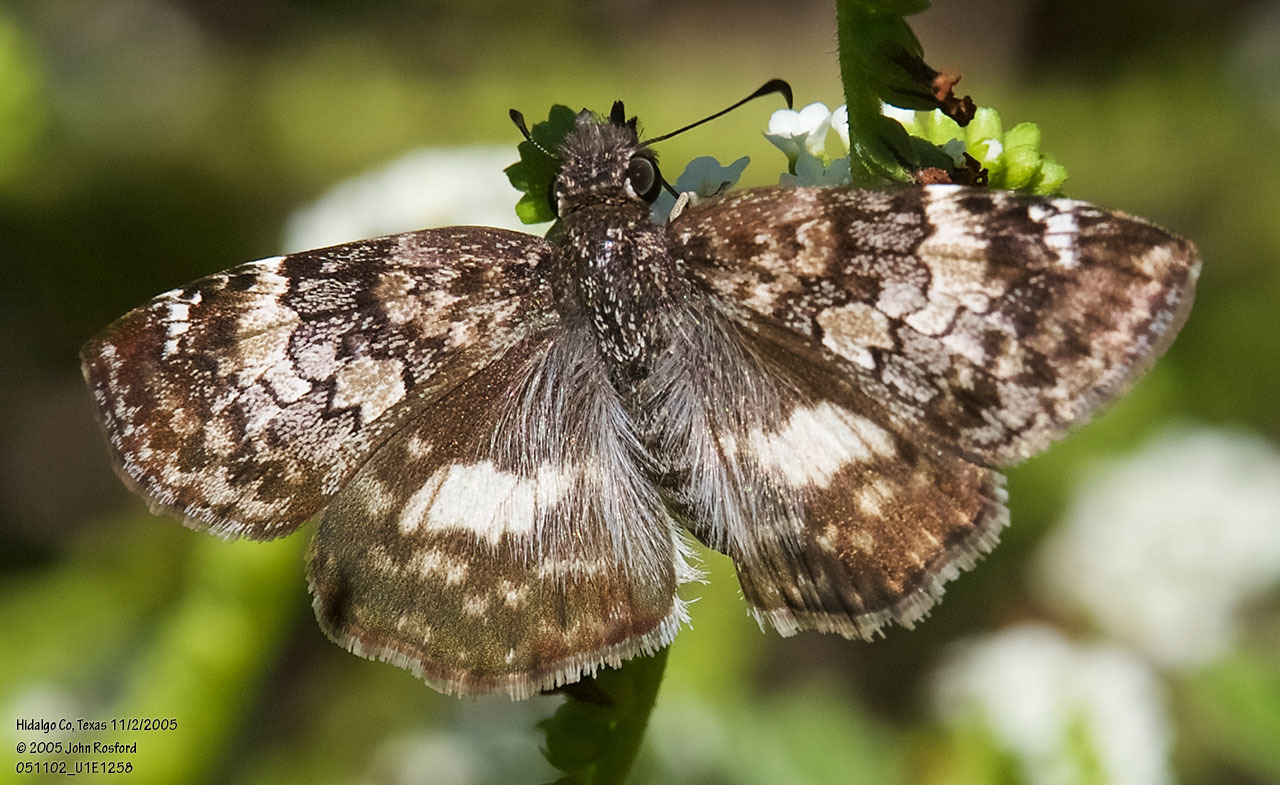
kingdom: Animalia
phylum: Arthropoda
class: Insecta
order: Lepidoptera
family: Hesperiidae
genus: Chiothion
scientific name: Chiothion georgina
